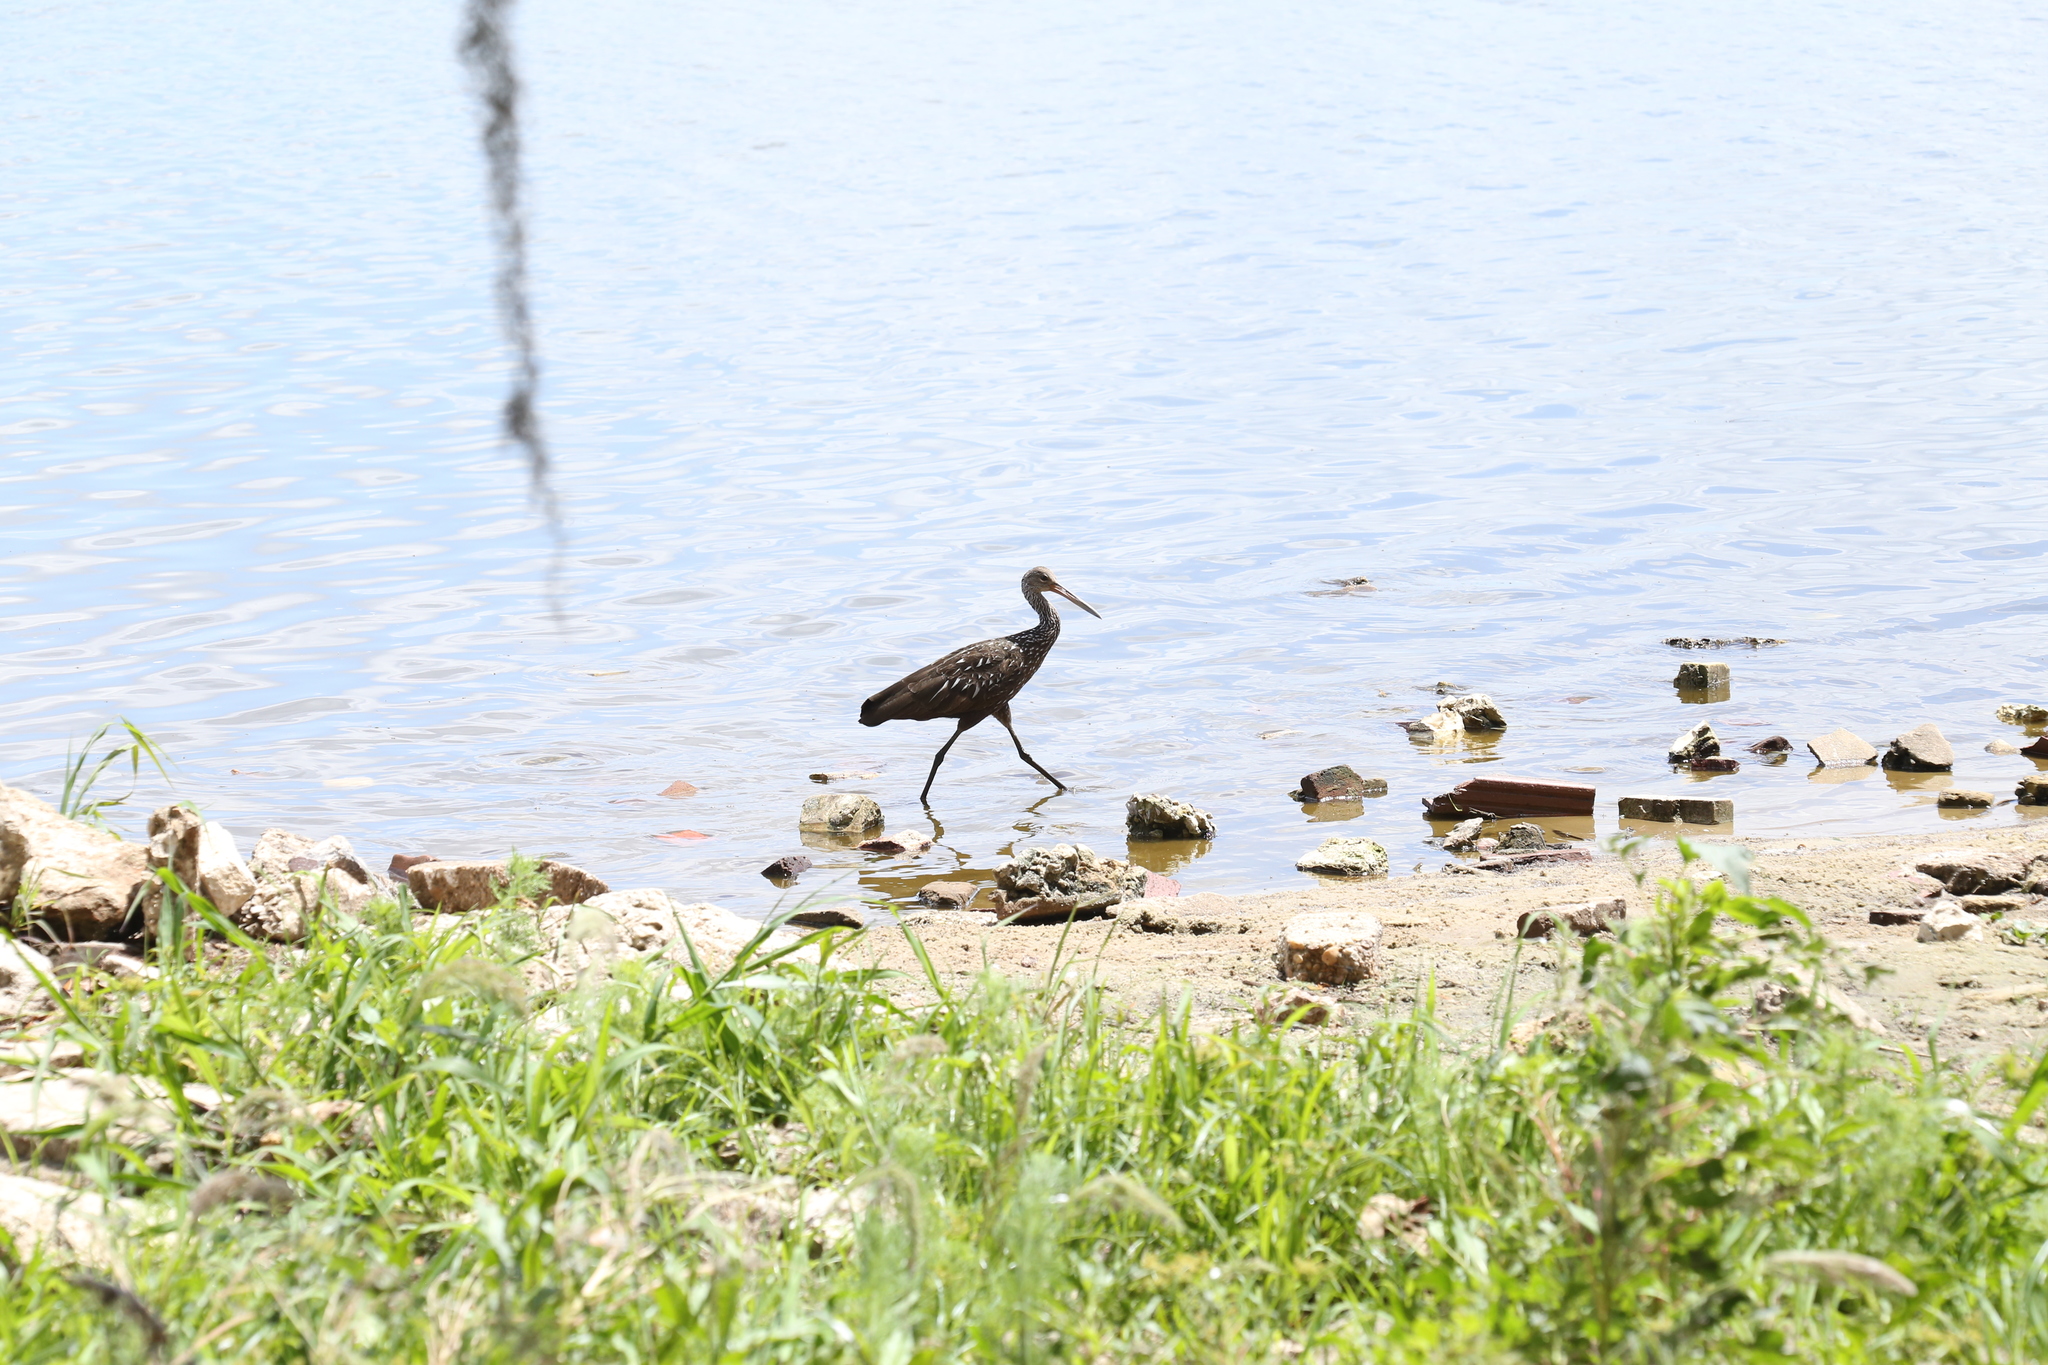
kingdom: Animalia
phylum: Chordata
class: Aves
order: Gruiformes
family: Aramidae
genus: Aramus
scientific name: Aramus guarauna
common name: Limpkin
